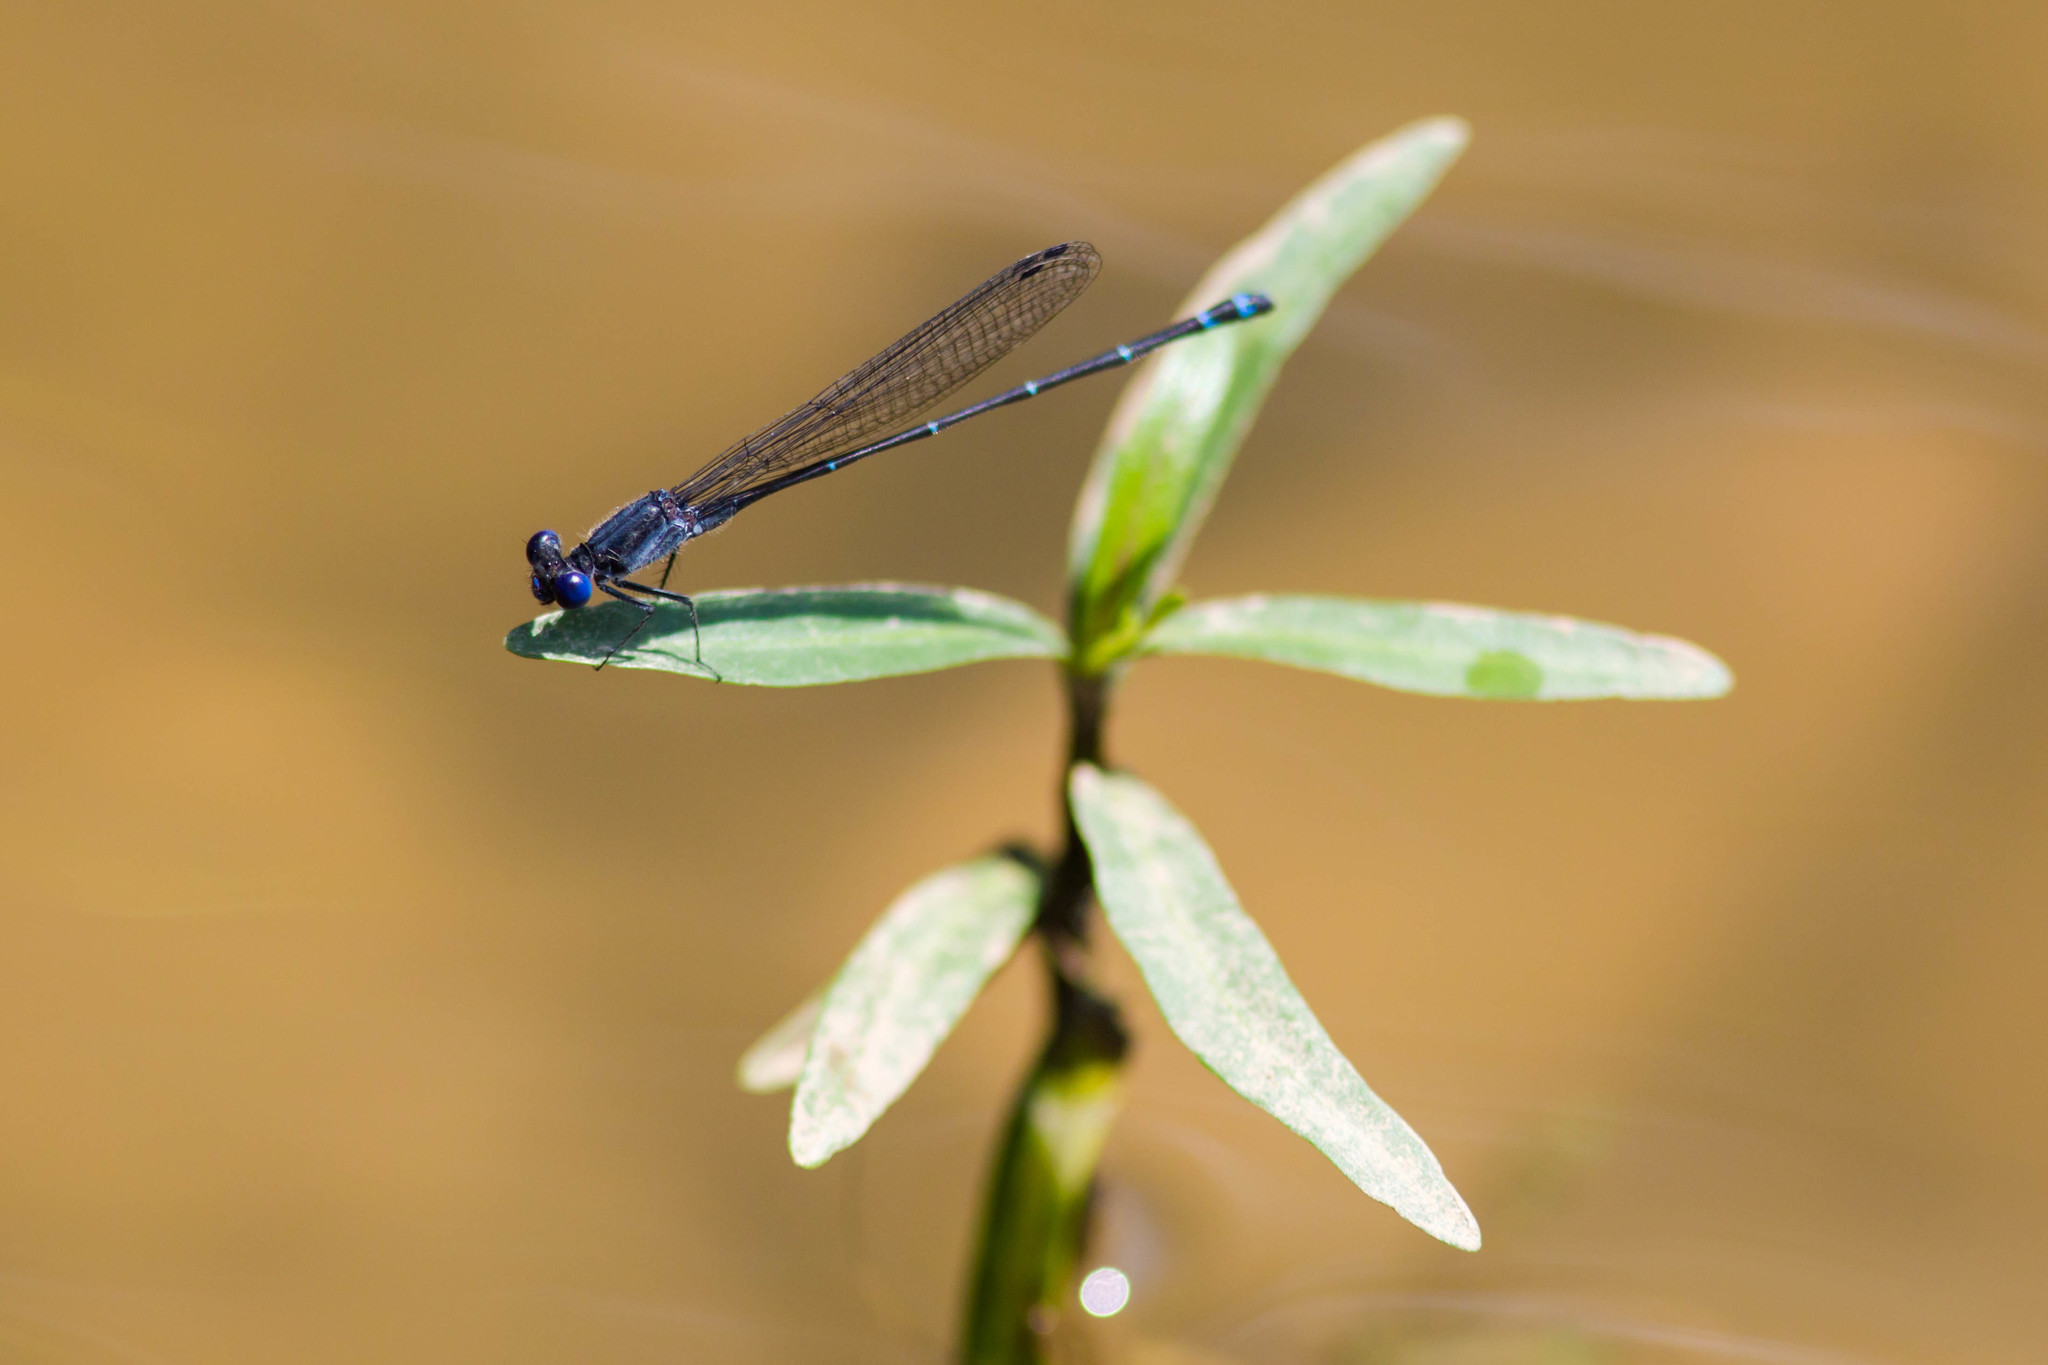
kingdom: Animalia
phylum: Arthropoda
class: Insecta
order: Odonata
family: Coenagrionidae
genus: Argia
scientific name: Argia translata
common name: Dusky dancer
